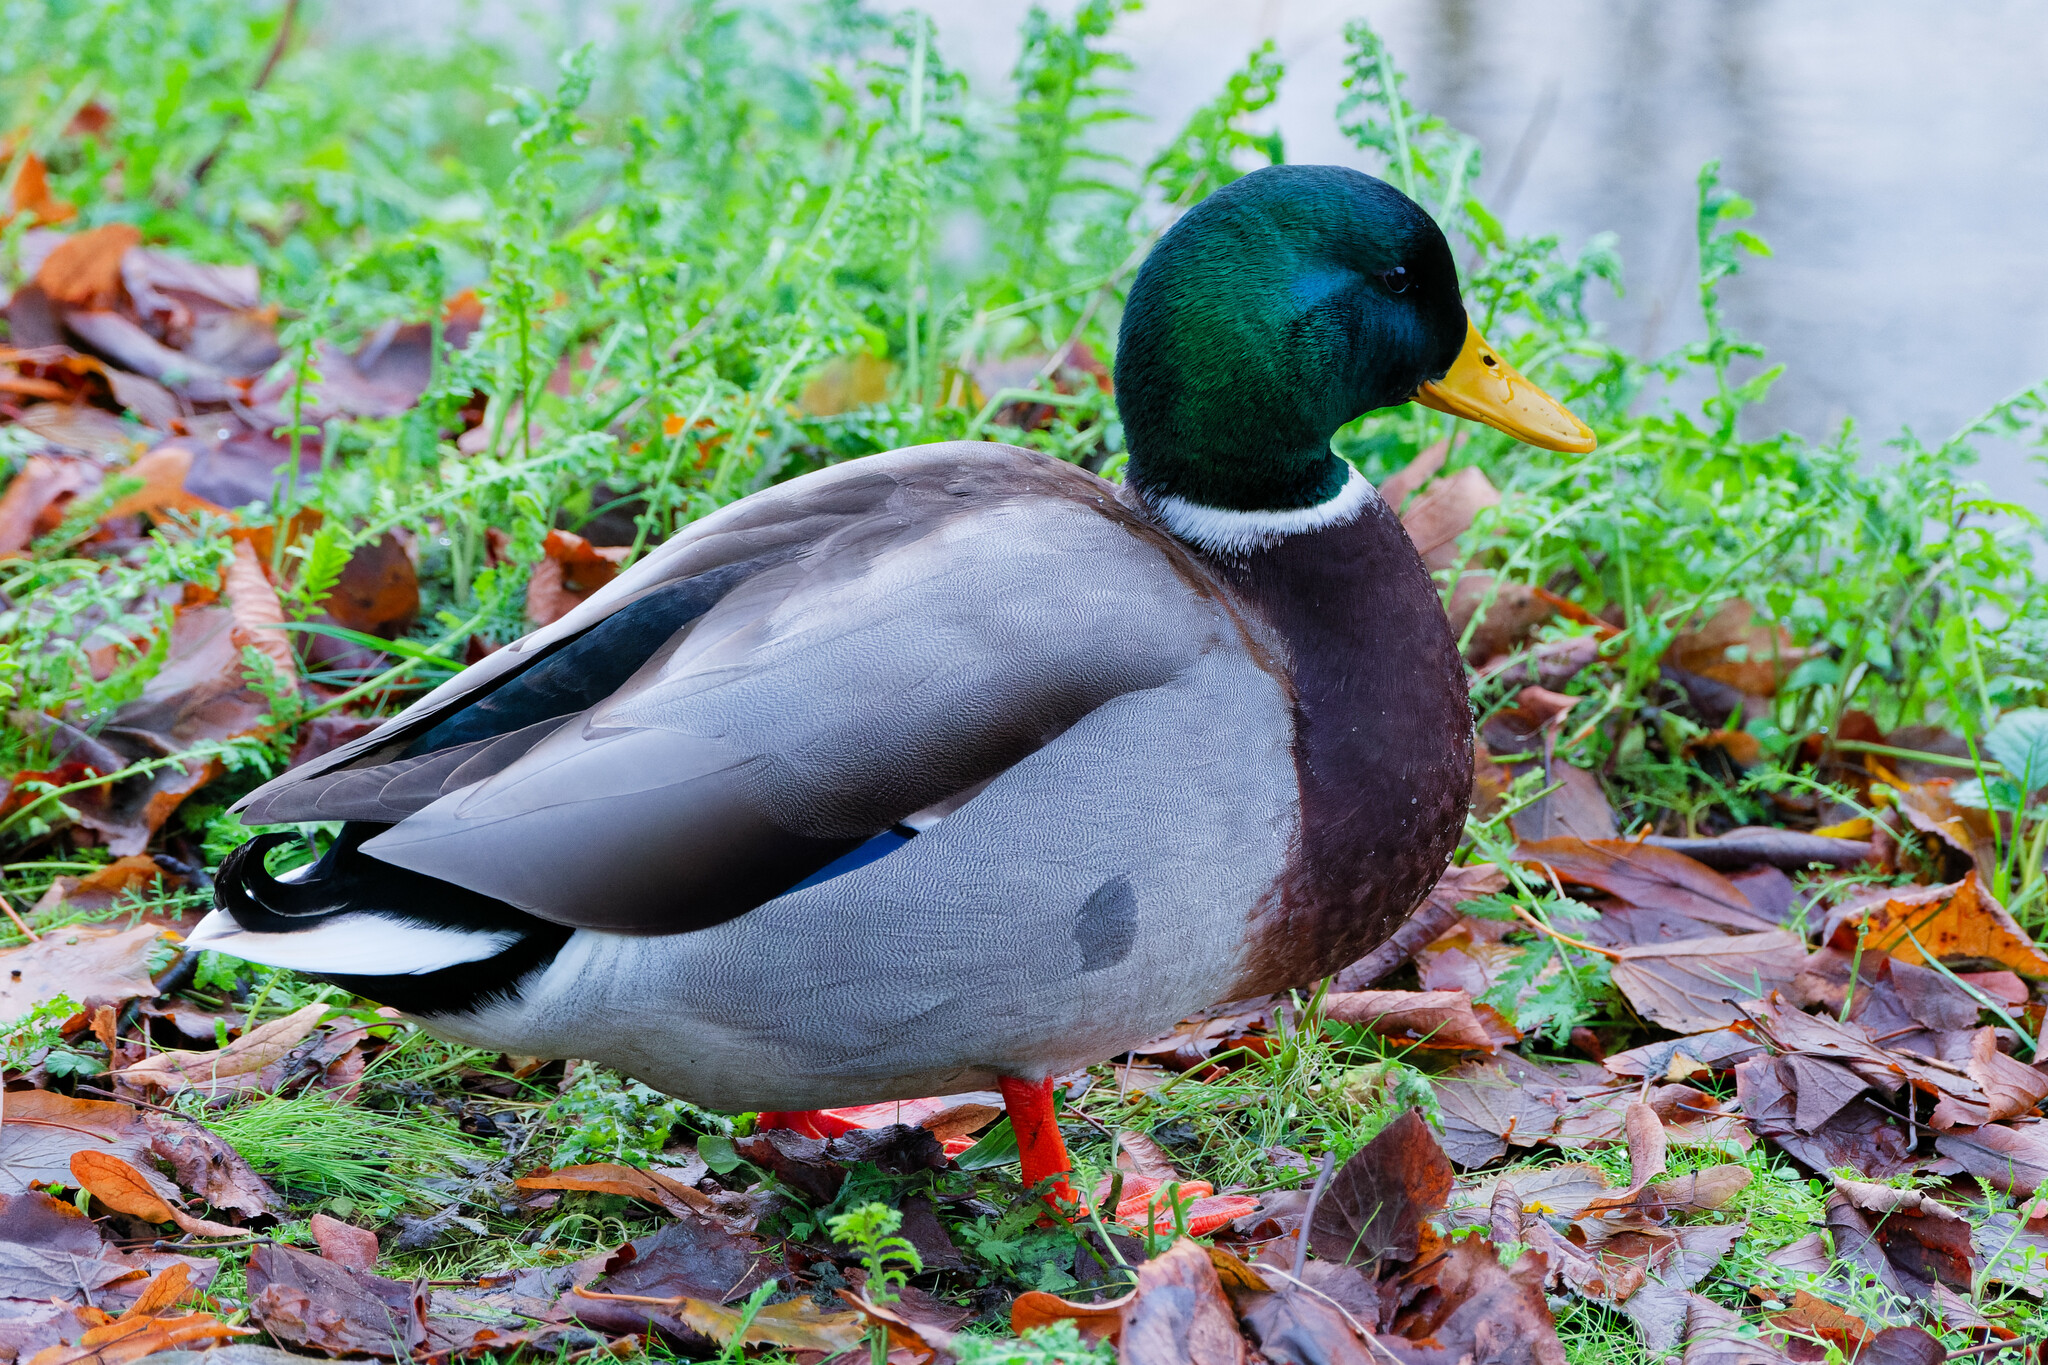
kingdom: Animalia
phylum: Chordata
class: Aves
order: Anseriformes
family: Anatidae
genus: Anas
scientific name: Anas platyrhynchos
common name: Mallard
